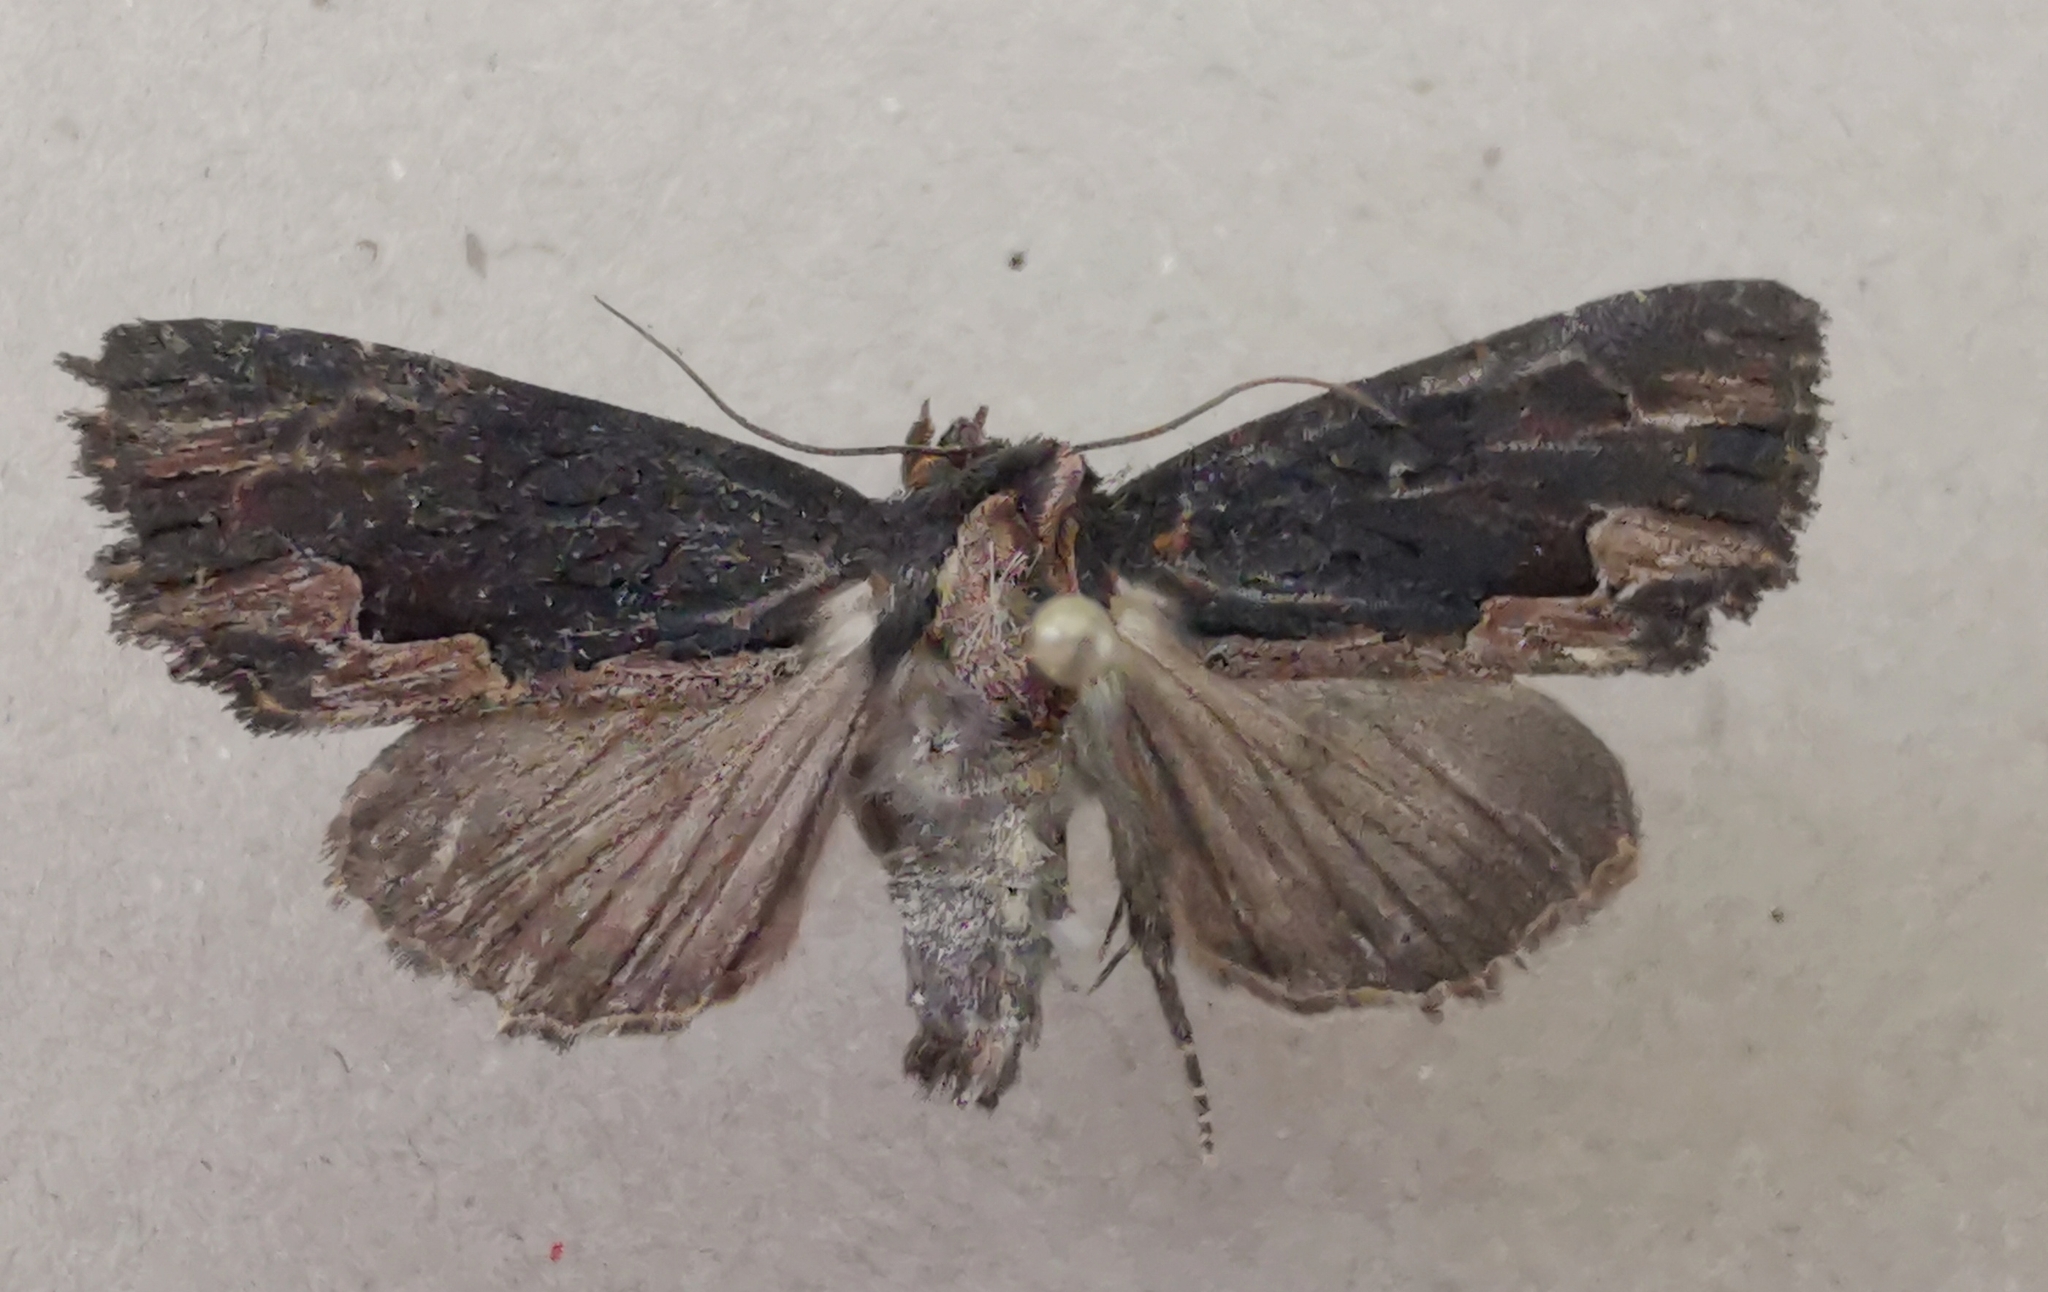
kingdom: Animalia
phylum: Arthropoda
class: Insecta
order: Lepidoptera
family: Noctuidae
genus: Dypterygia
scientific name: Dypterygia scabriuscula
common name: Bird's wing
